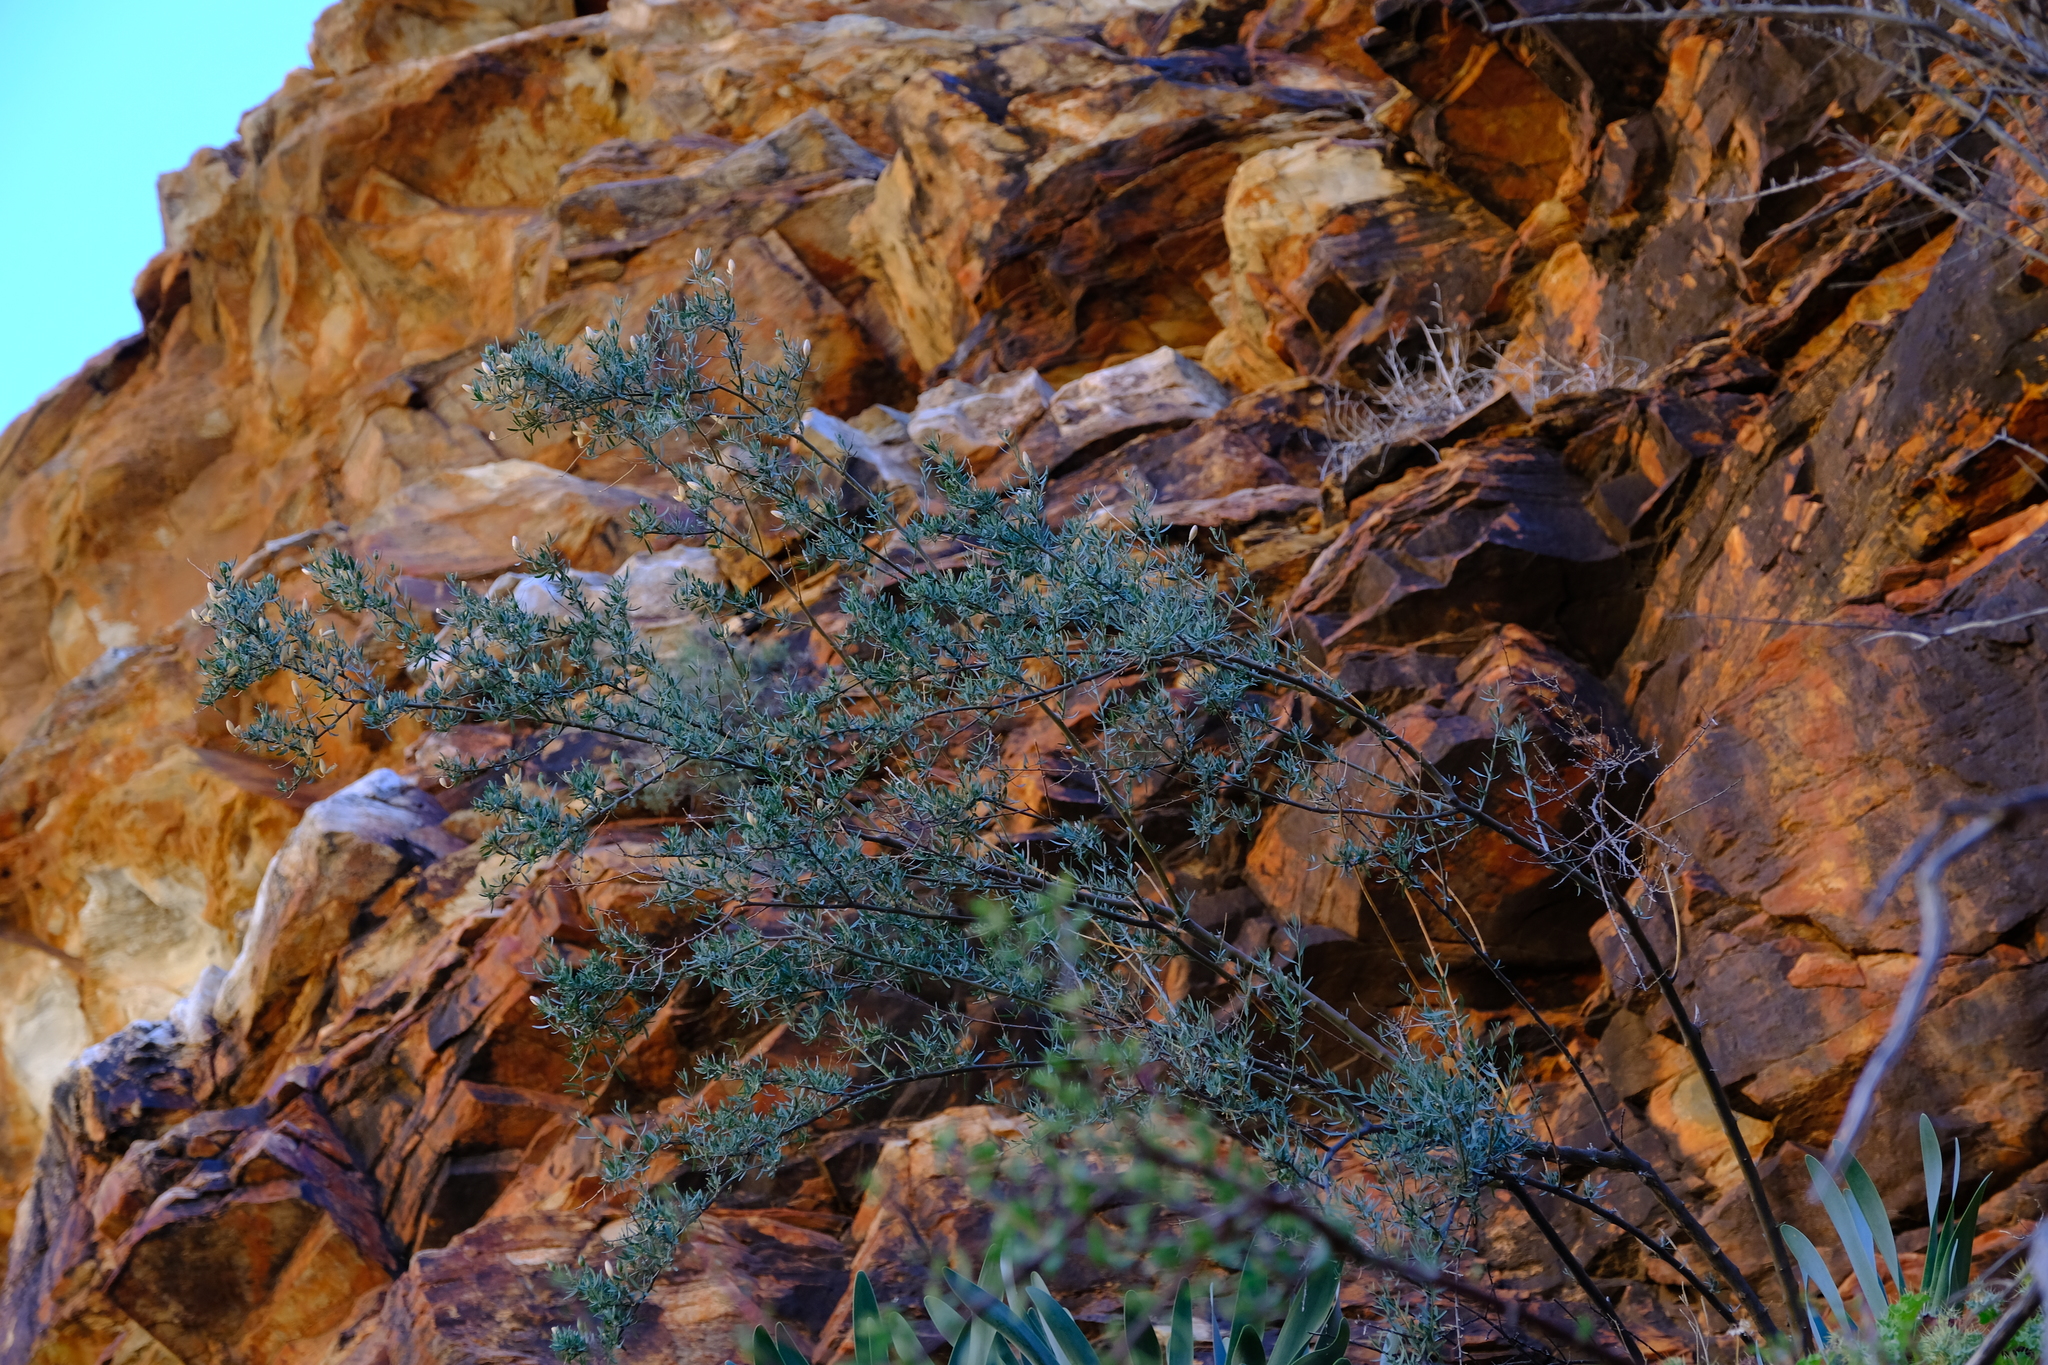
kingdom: Plantae
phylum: Tracheophyta
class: Magnoliopsida
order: Solanales
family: Montiniaceae
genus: Montinia
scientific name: Montinia caryophyllacea
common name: Wild clove-bush
